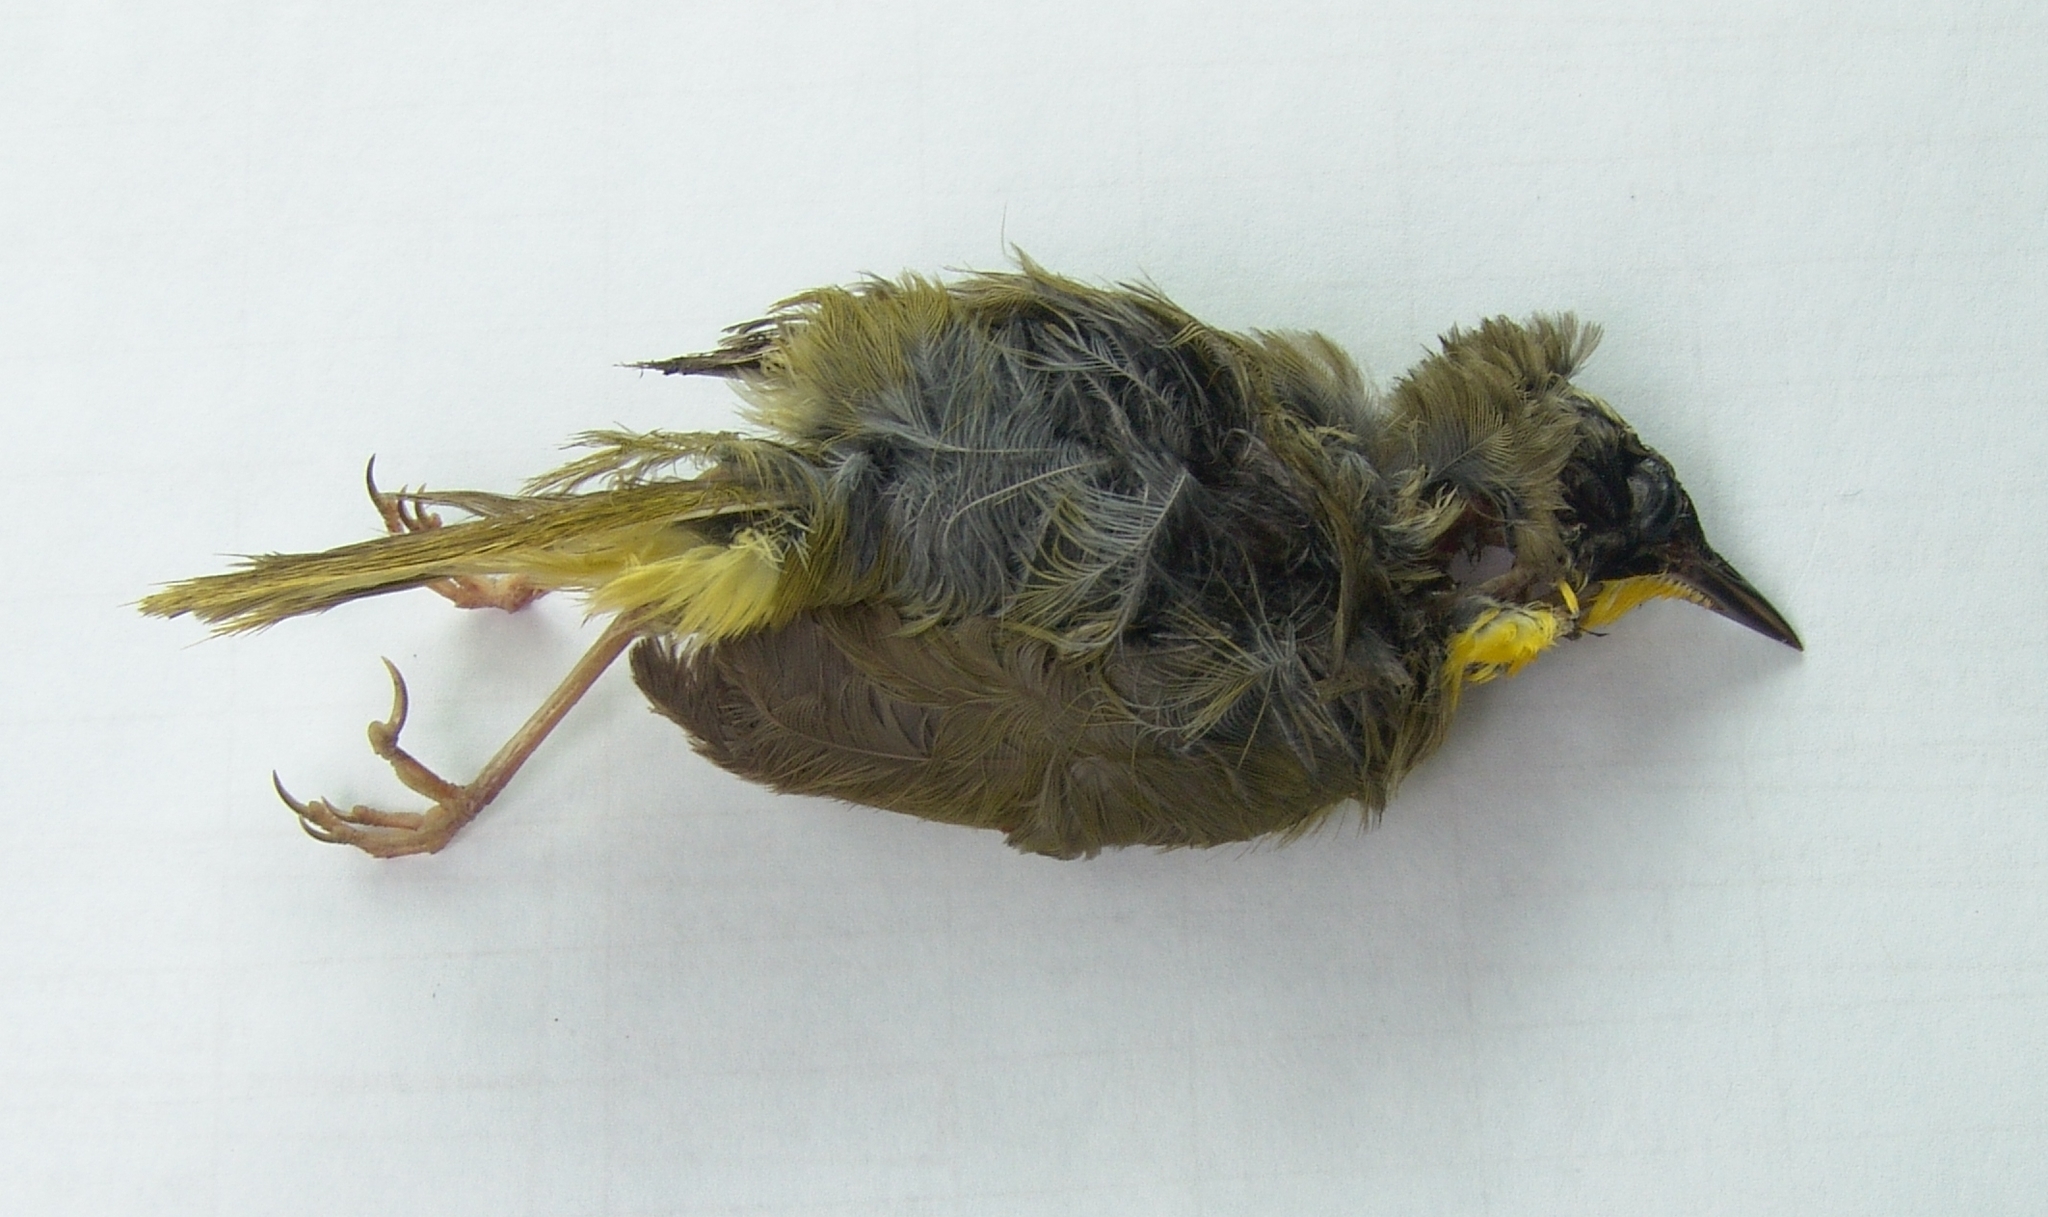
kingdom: Animalia
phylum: Chordata
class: Aves
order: Passeriformes
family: Parulidae
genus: Geothlypis
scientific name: Geothlypis formosa
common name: Kentucky warbler
